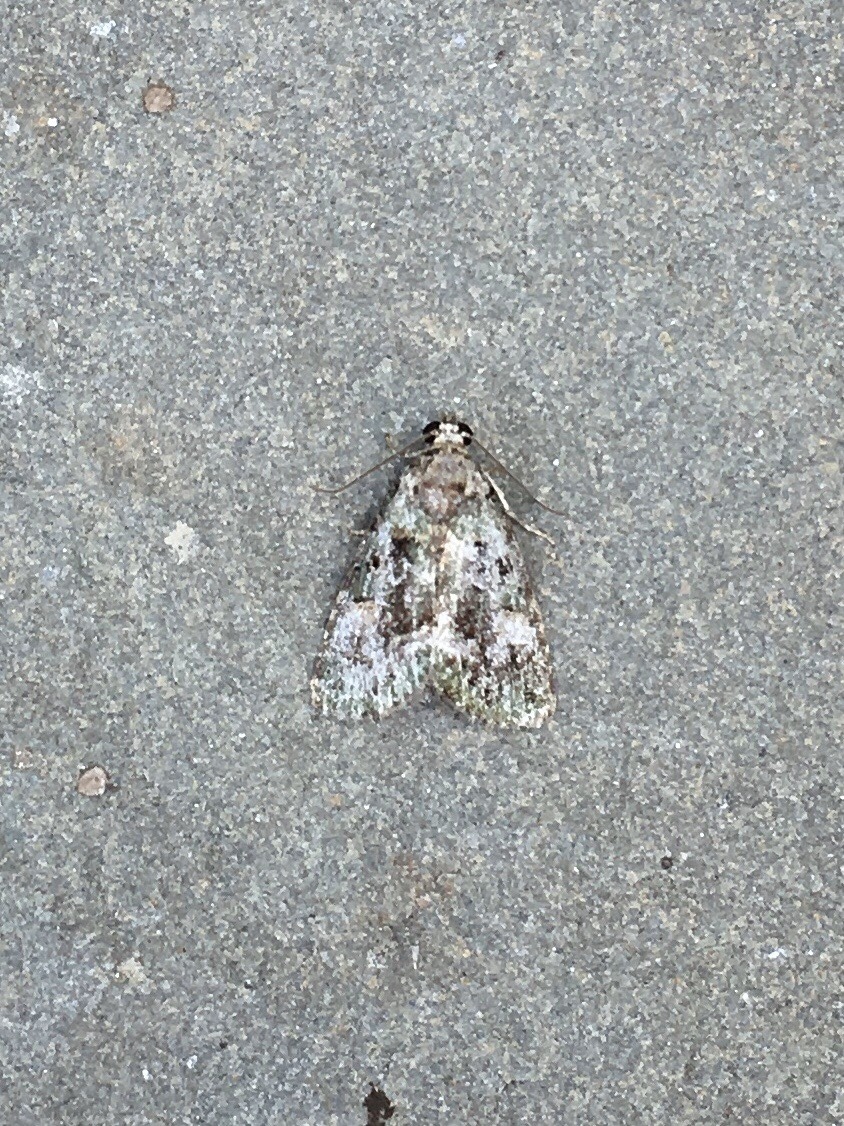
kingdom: Animalia
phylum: Arthropoda
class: Insecta
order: Lepidoptera
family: Noctuidae
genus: Lithacodia
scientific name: Lithacodia musta
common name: Small mossy glyph
